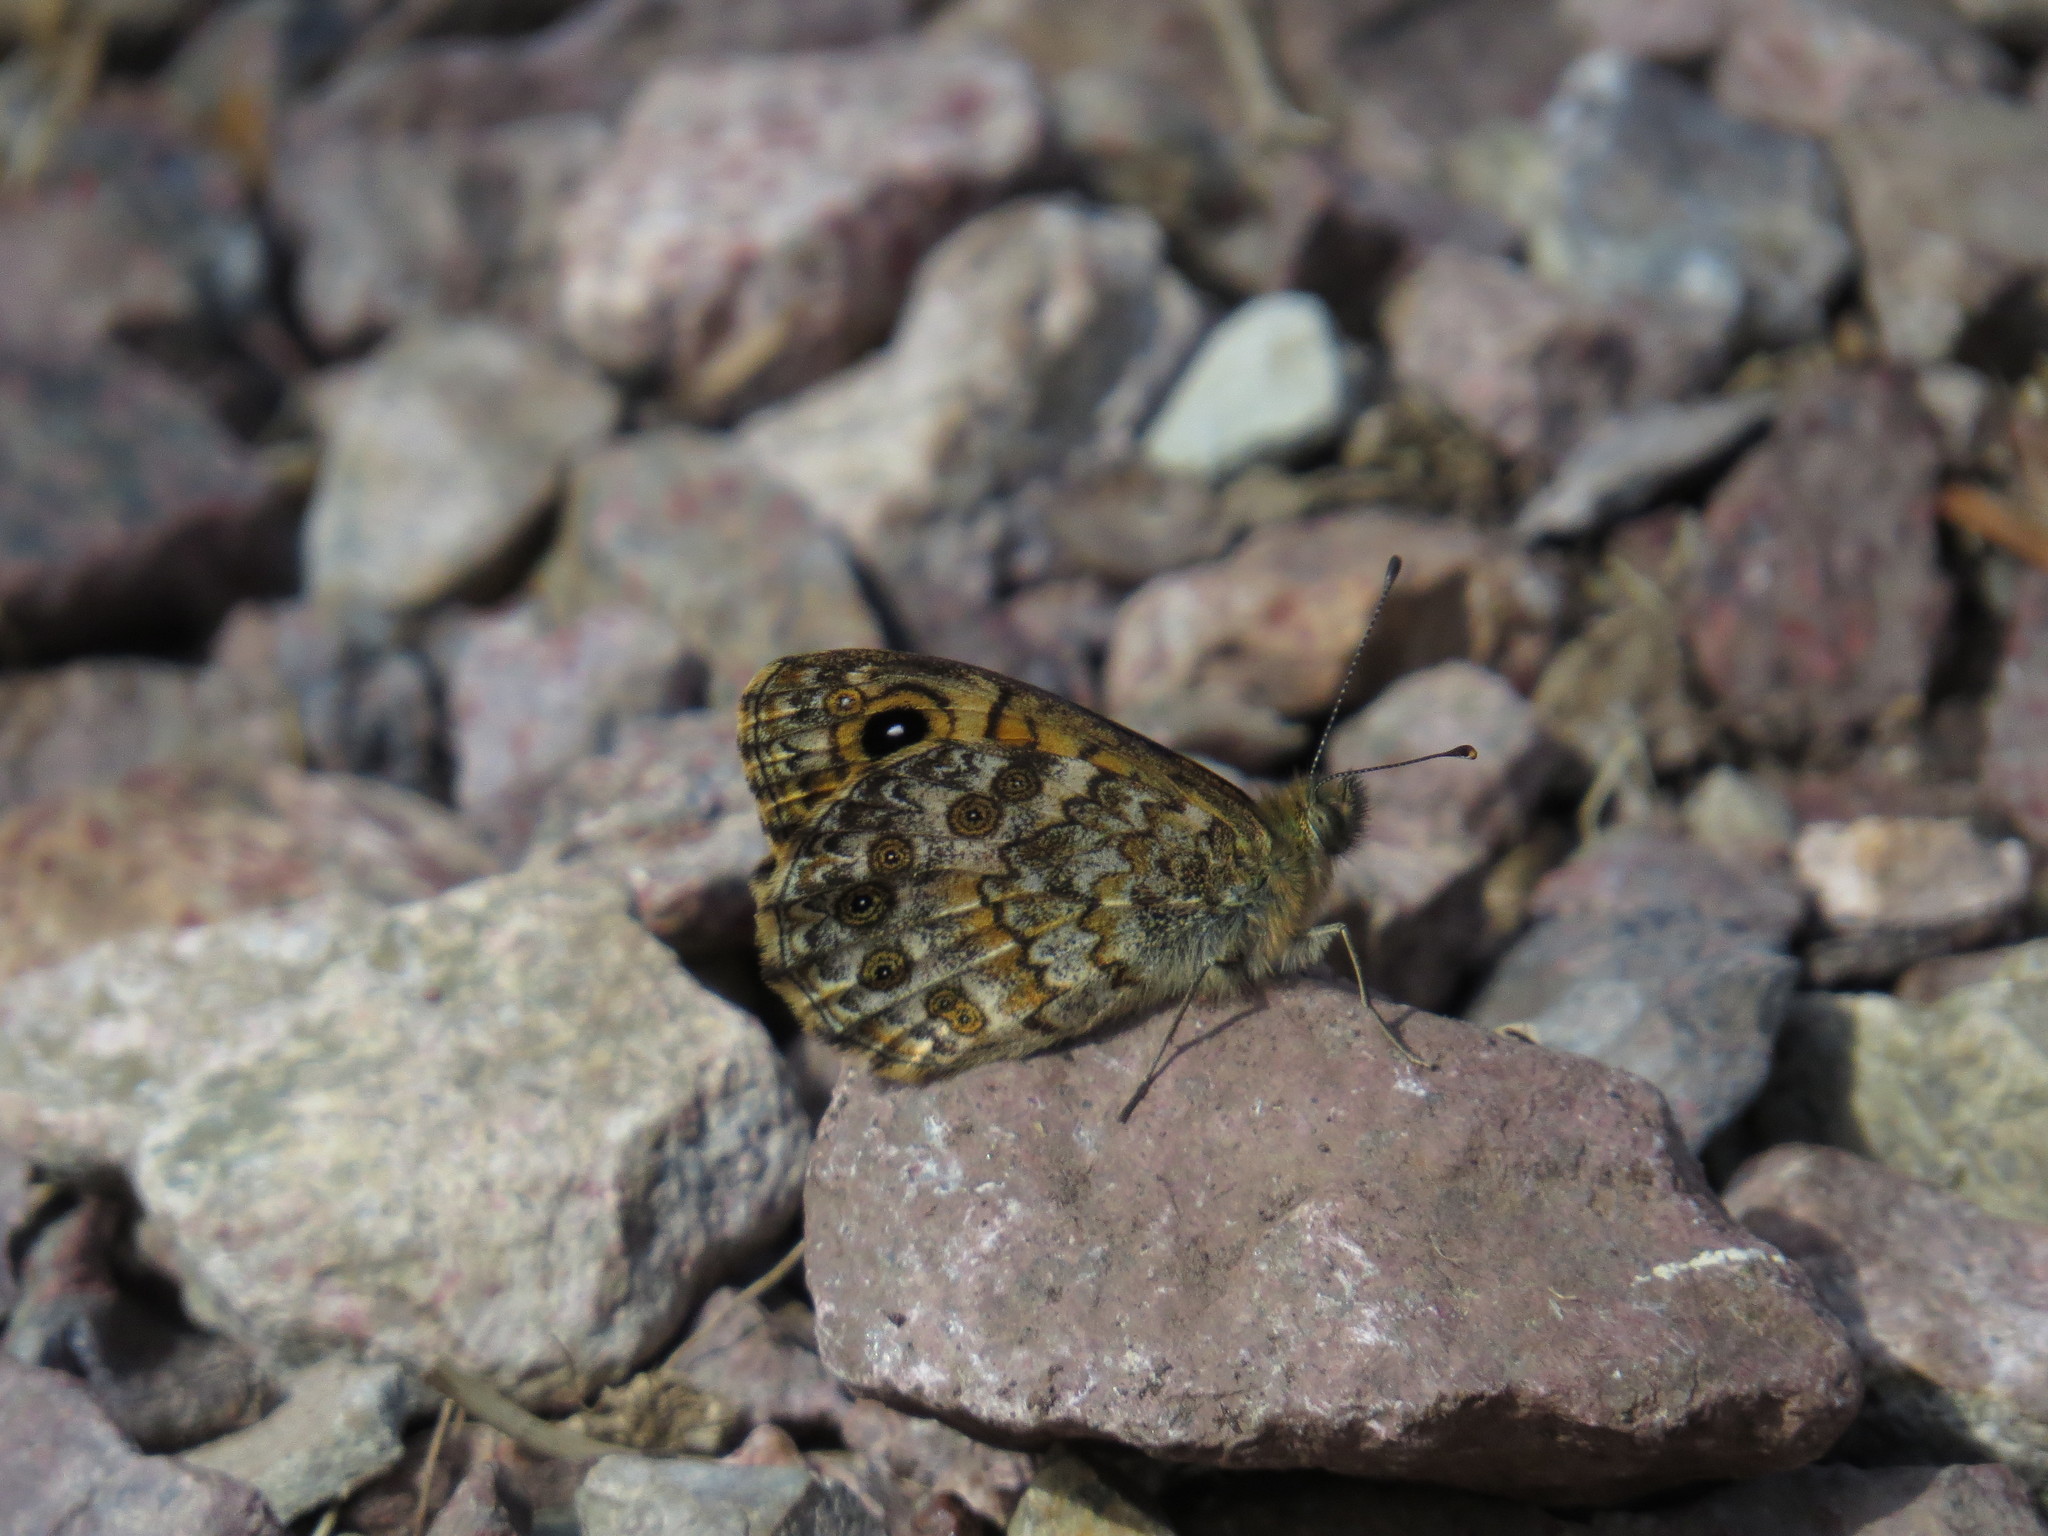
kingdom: Animalia
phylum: Arthropoda
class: Insecta
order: Lepidoptera
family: Nymphalidae
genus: Pararge
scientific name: Pararge Lasiommata paramegaera
